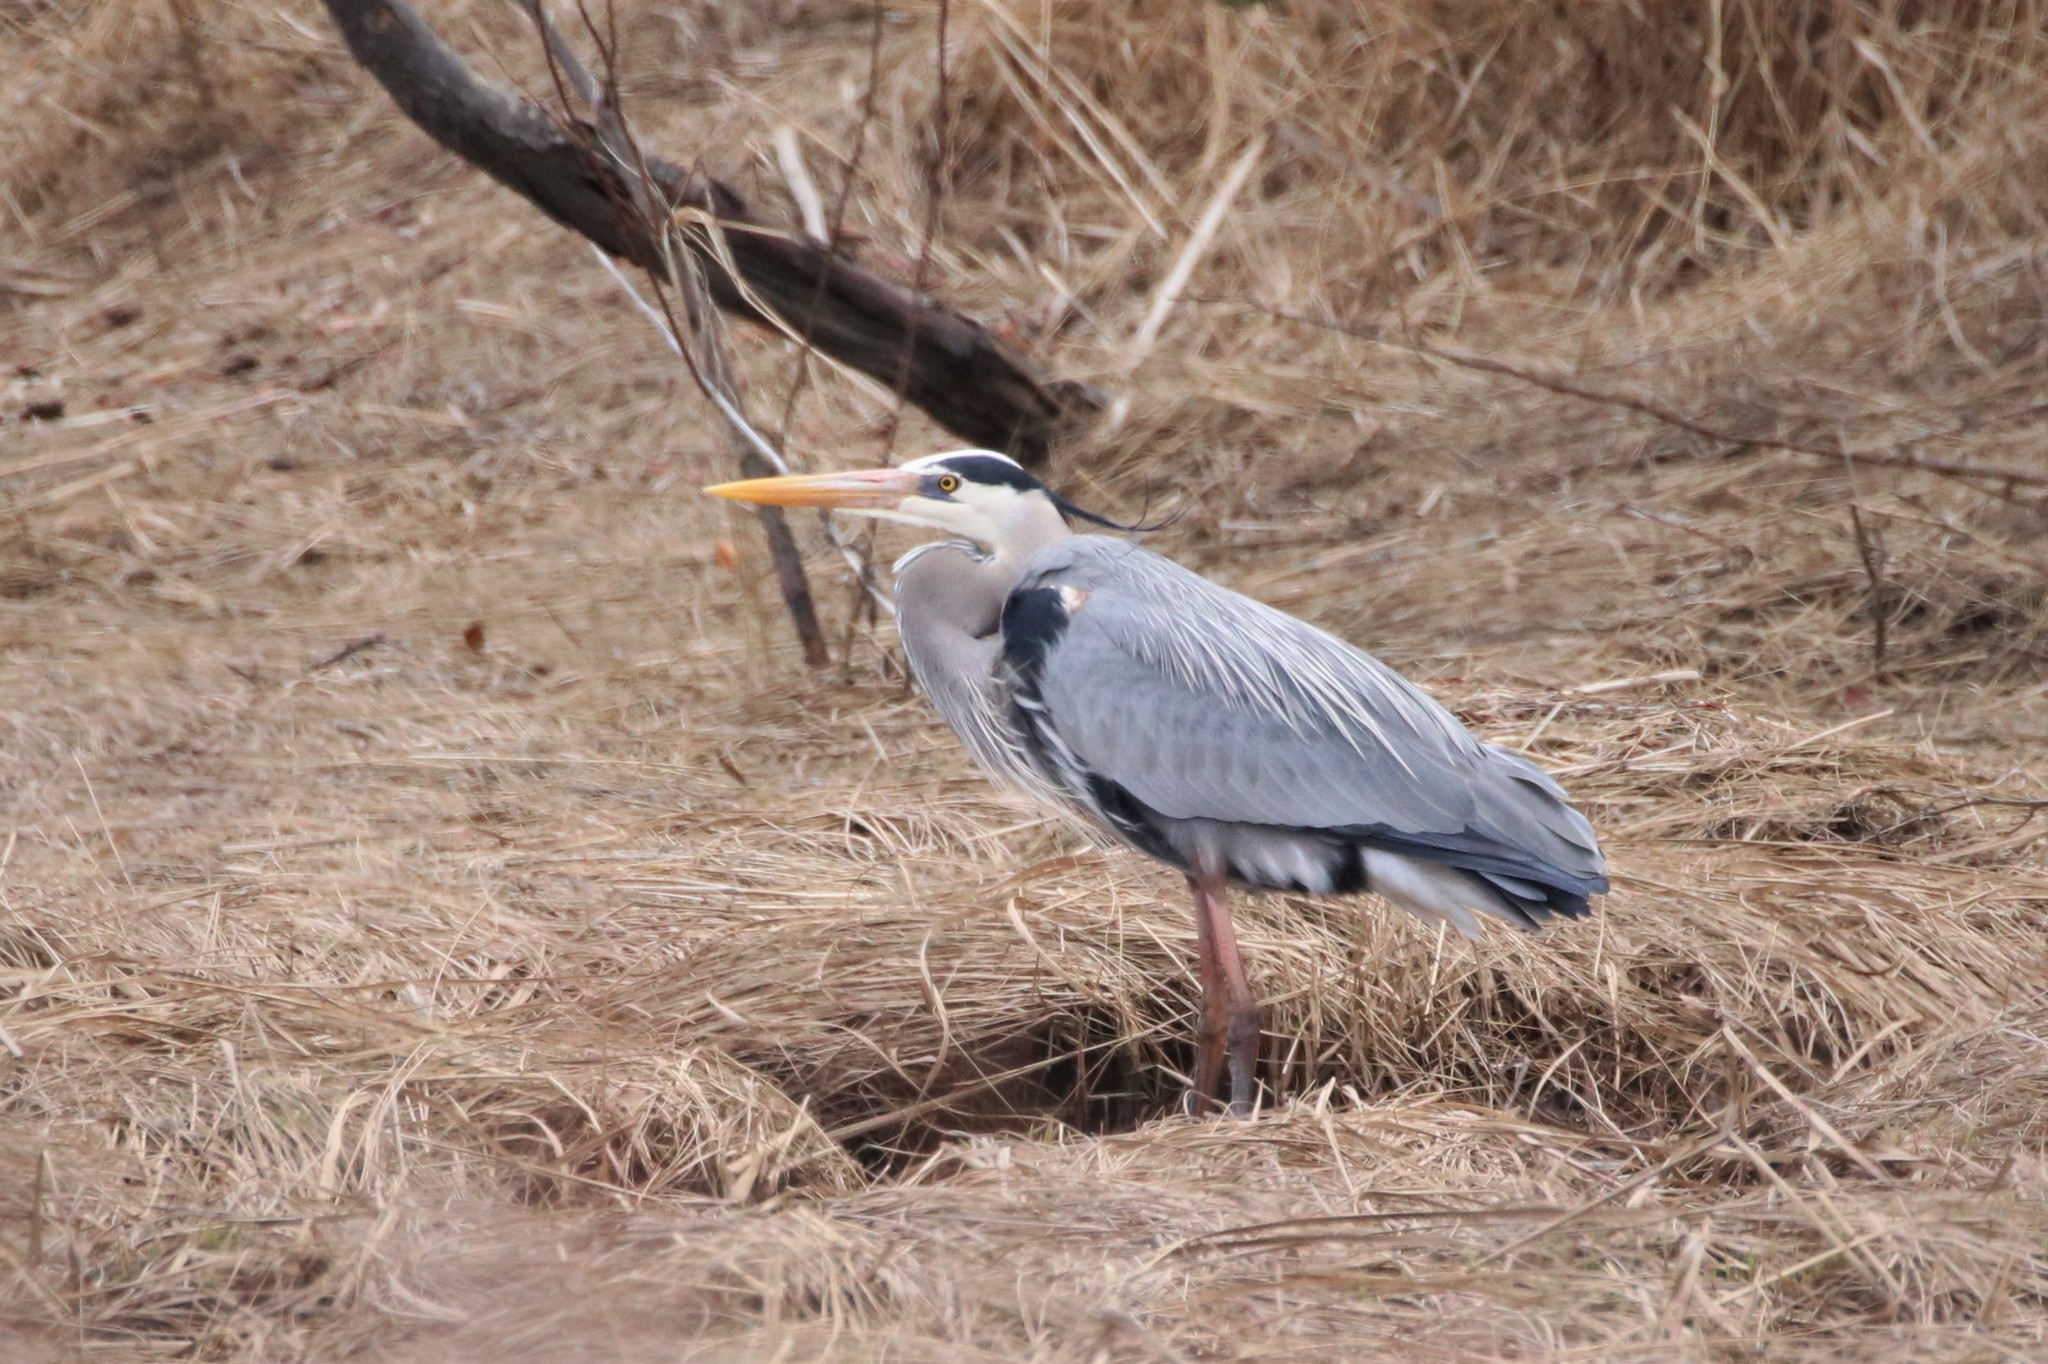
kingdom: Animalia
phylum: Chordata
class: Aves
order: Pelecaniformes
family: Ardeidae
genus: Ardea
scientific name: Ardea herodias
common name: Great blue heron
